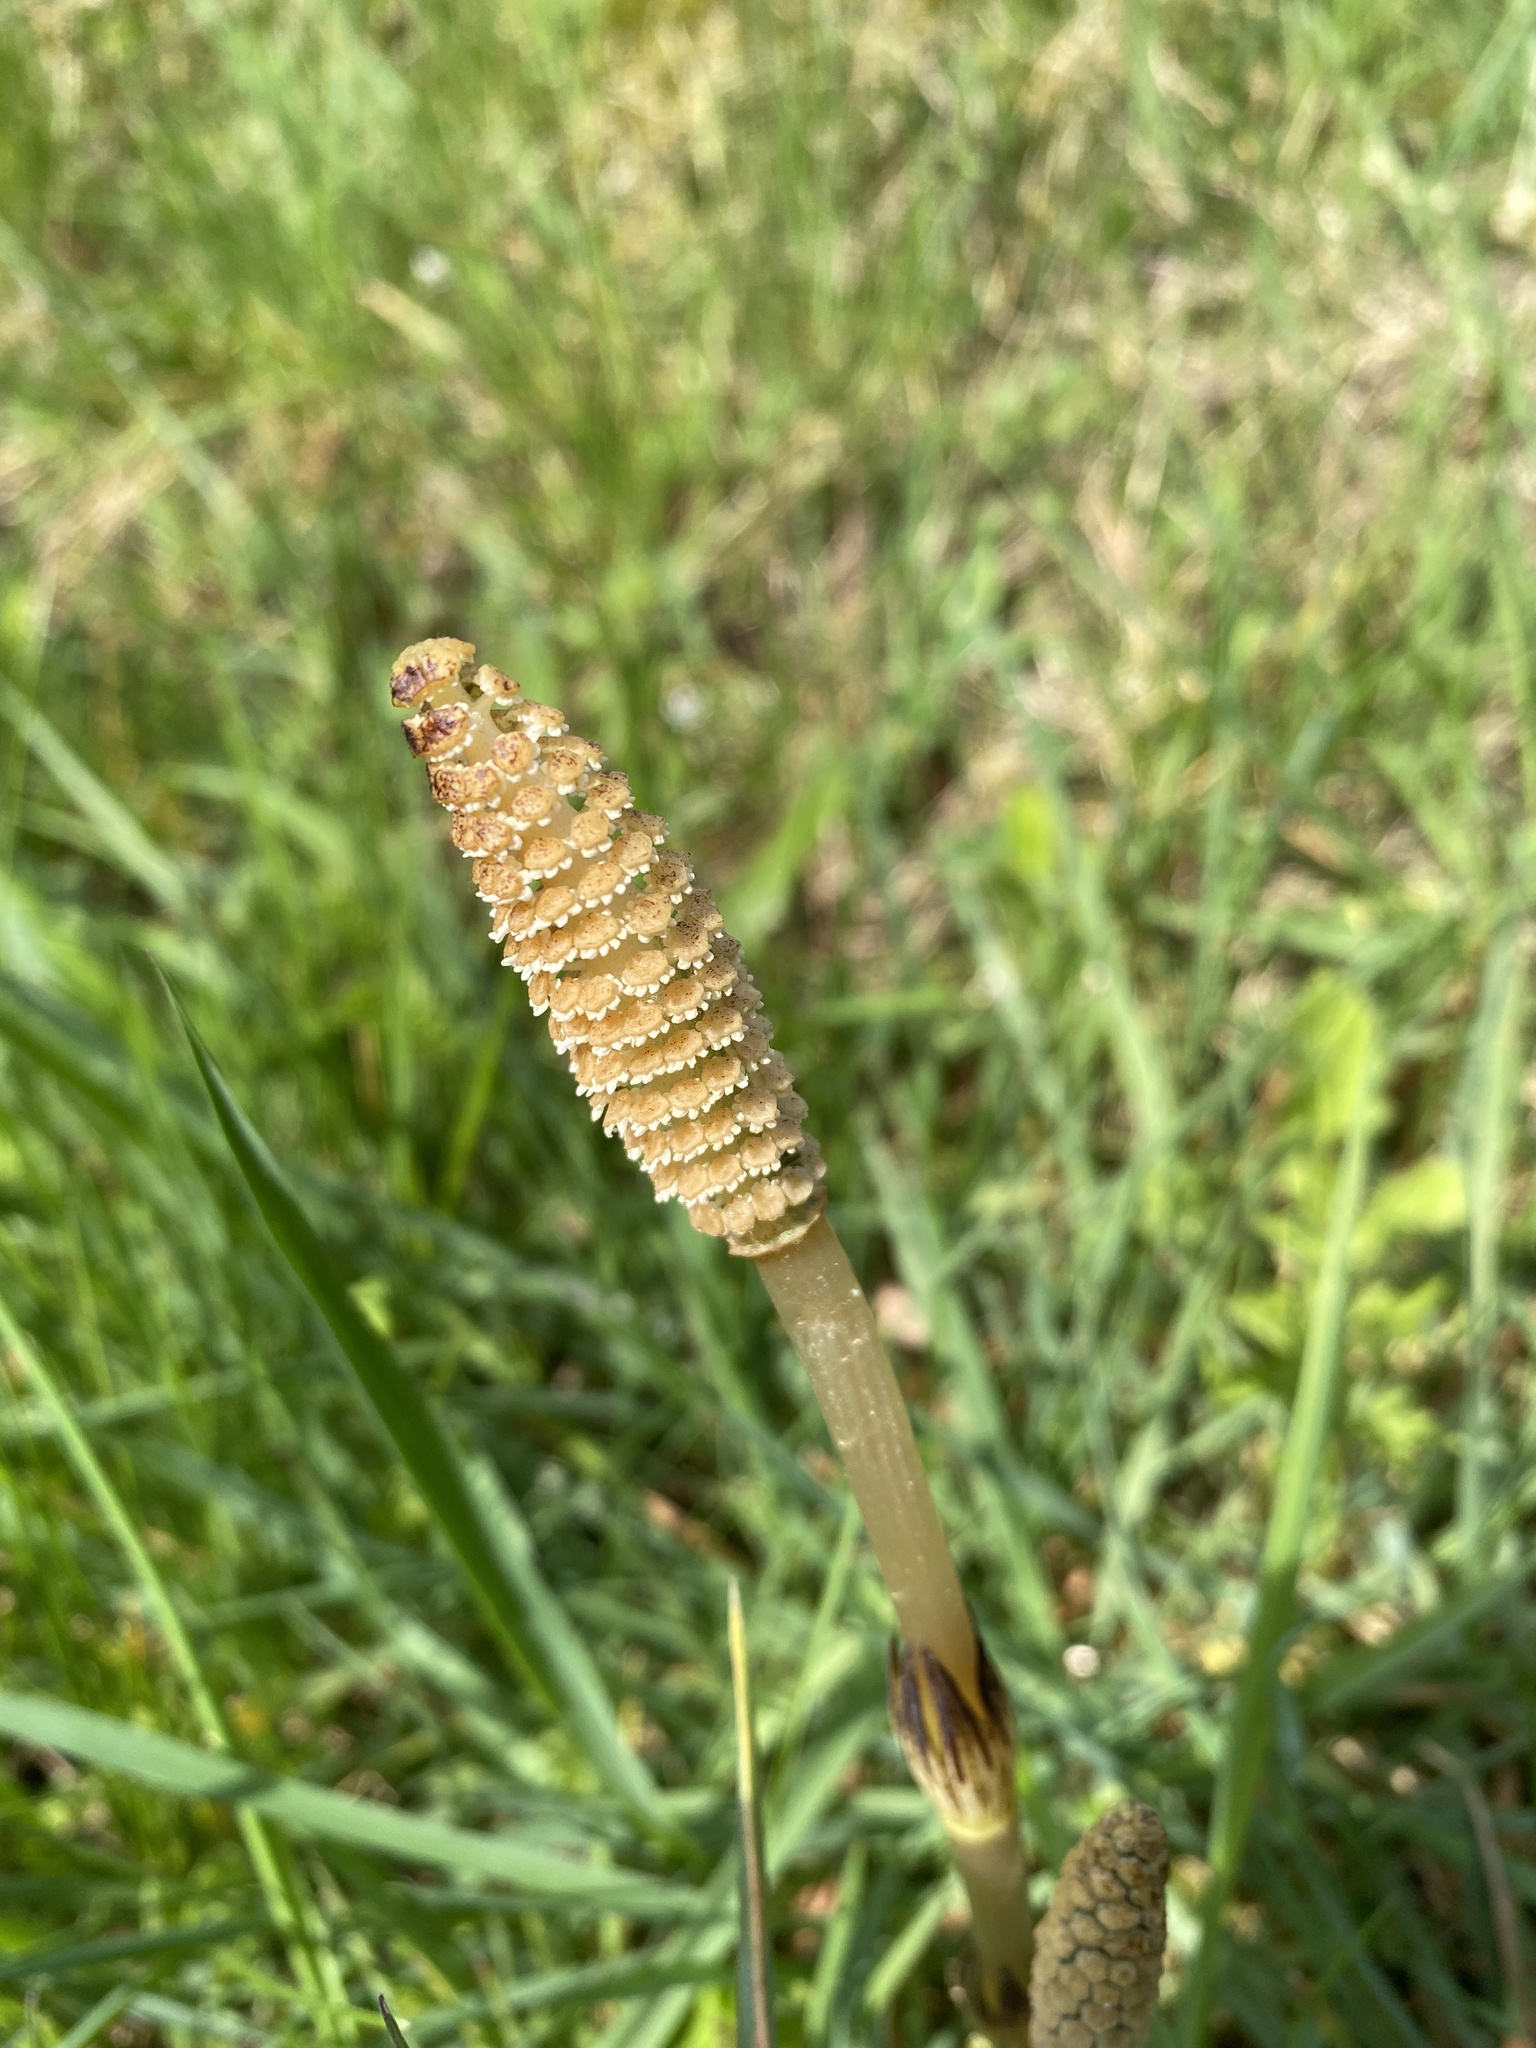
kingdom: Plantae
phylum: Tracheophyta
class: Polypodiopsida
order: Equisetales
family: Equisetaceae
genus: Equisetum
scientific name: Equisetum arvense
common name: Field horsetail
